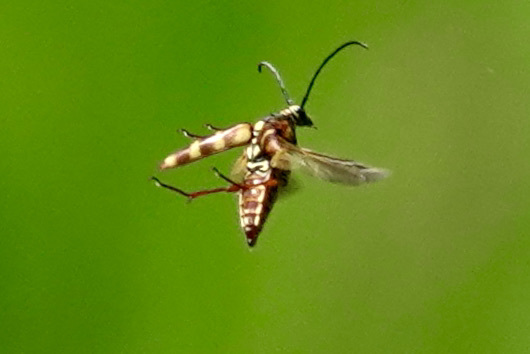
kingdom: Animalia
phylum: Arthropoda
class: Insecta
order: Coleoptera
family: Cerambycidae
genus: Typocerus
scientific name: Typocerus velutinus
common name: Banded longhorn beetle
